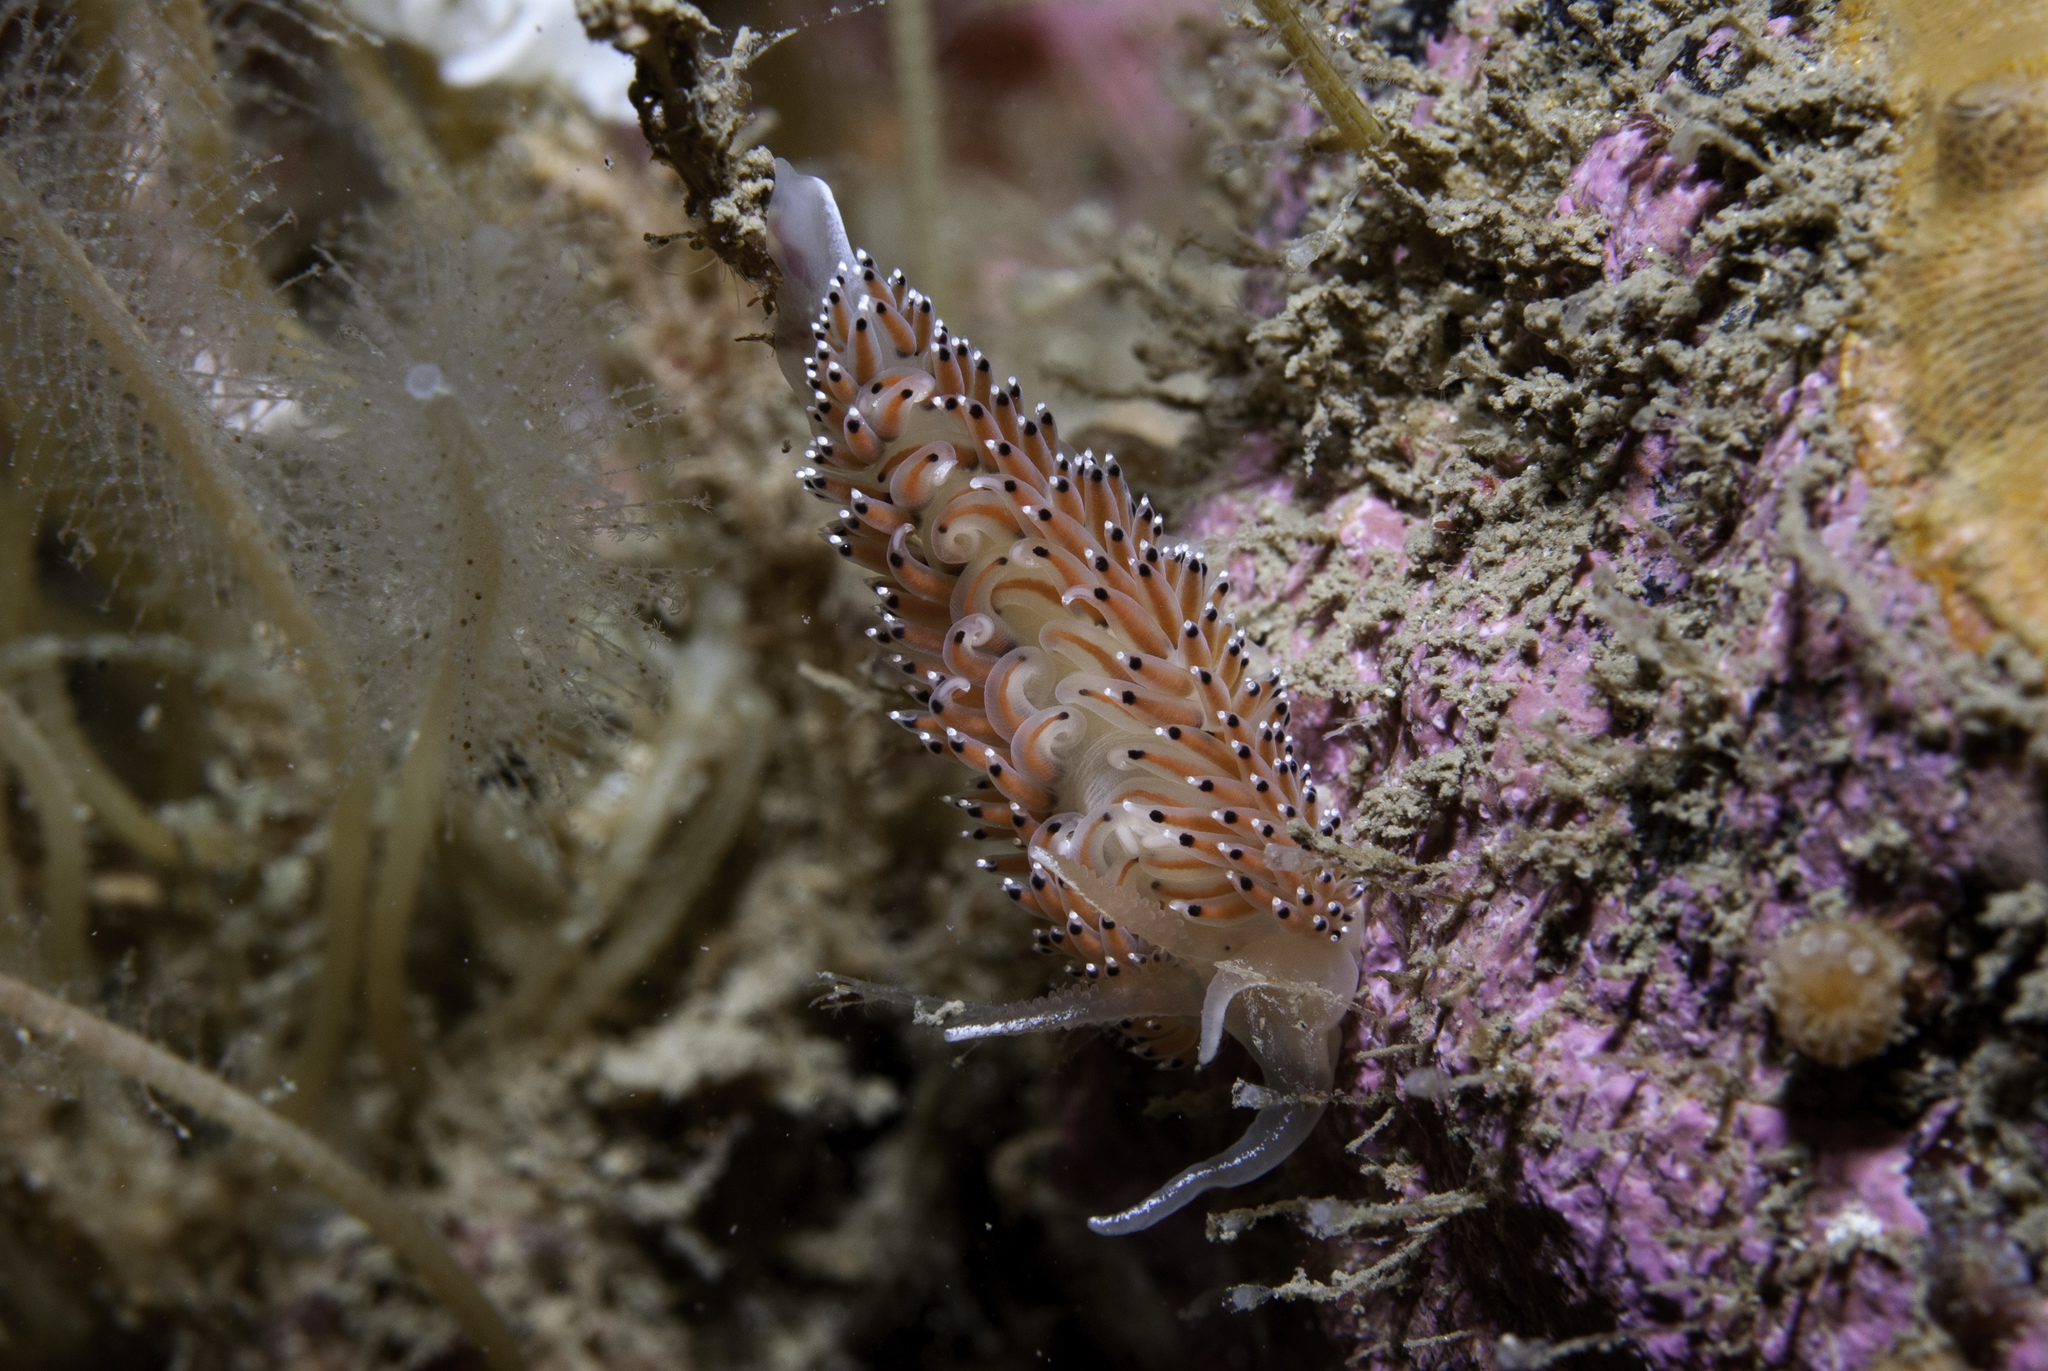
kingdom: Animalia
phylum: Mollusca
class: Gastropoda
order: Nudibranchia
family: Facelinidae
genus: Caloria
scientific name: Caloria elegans
